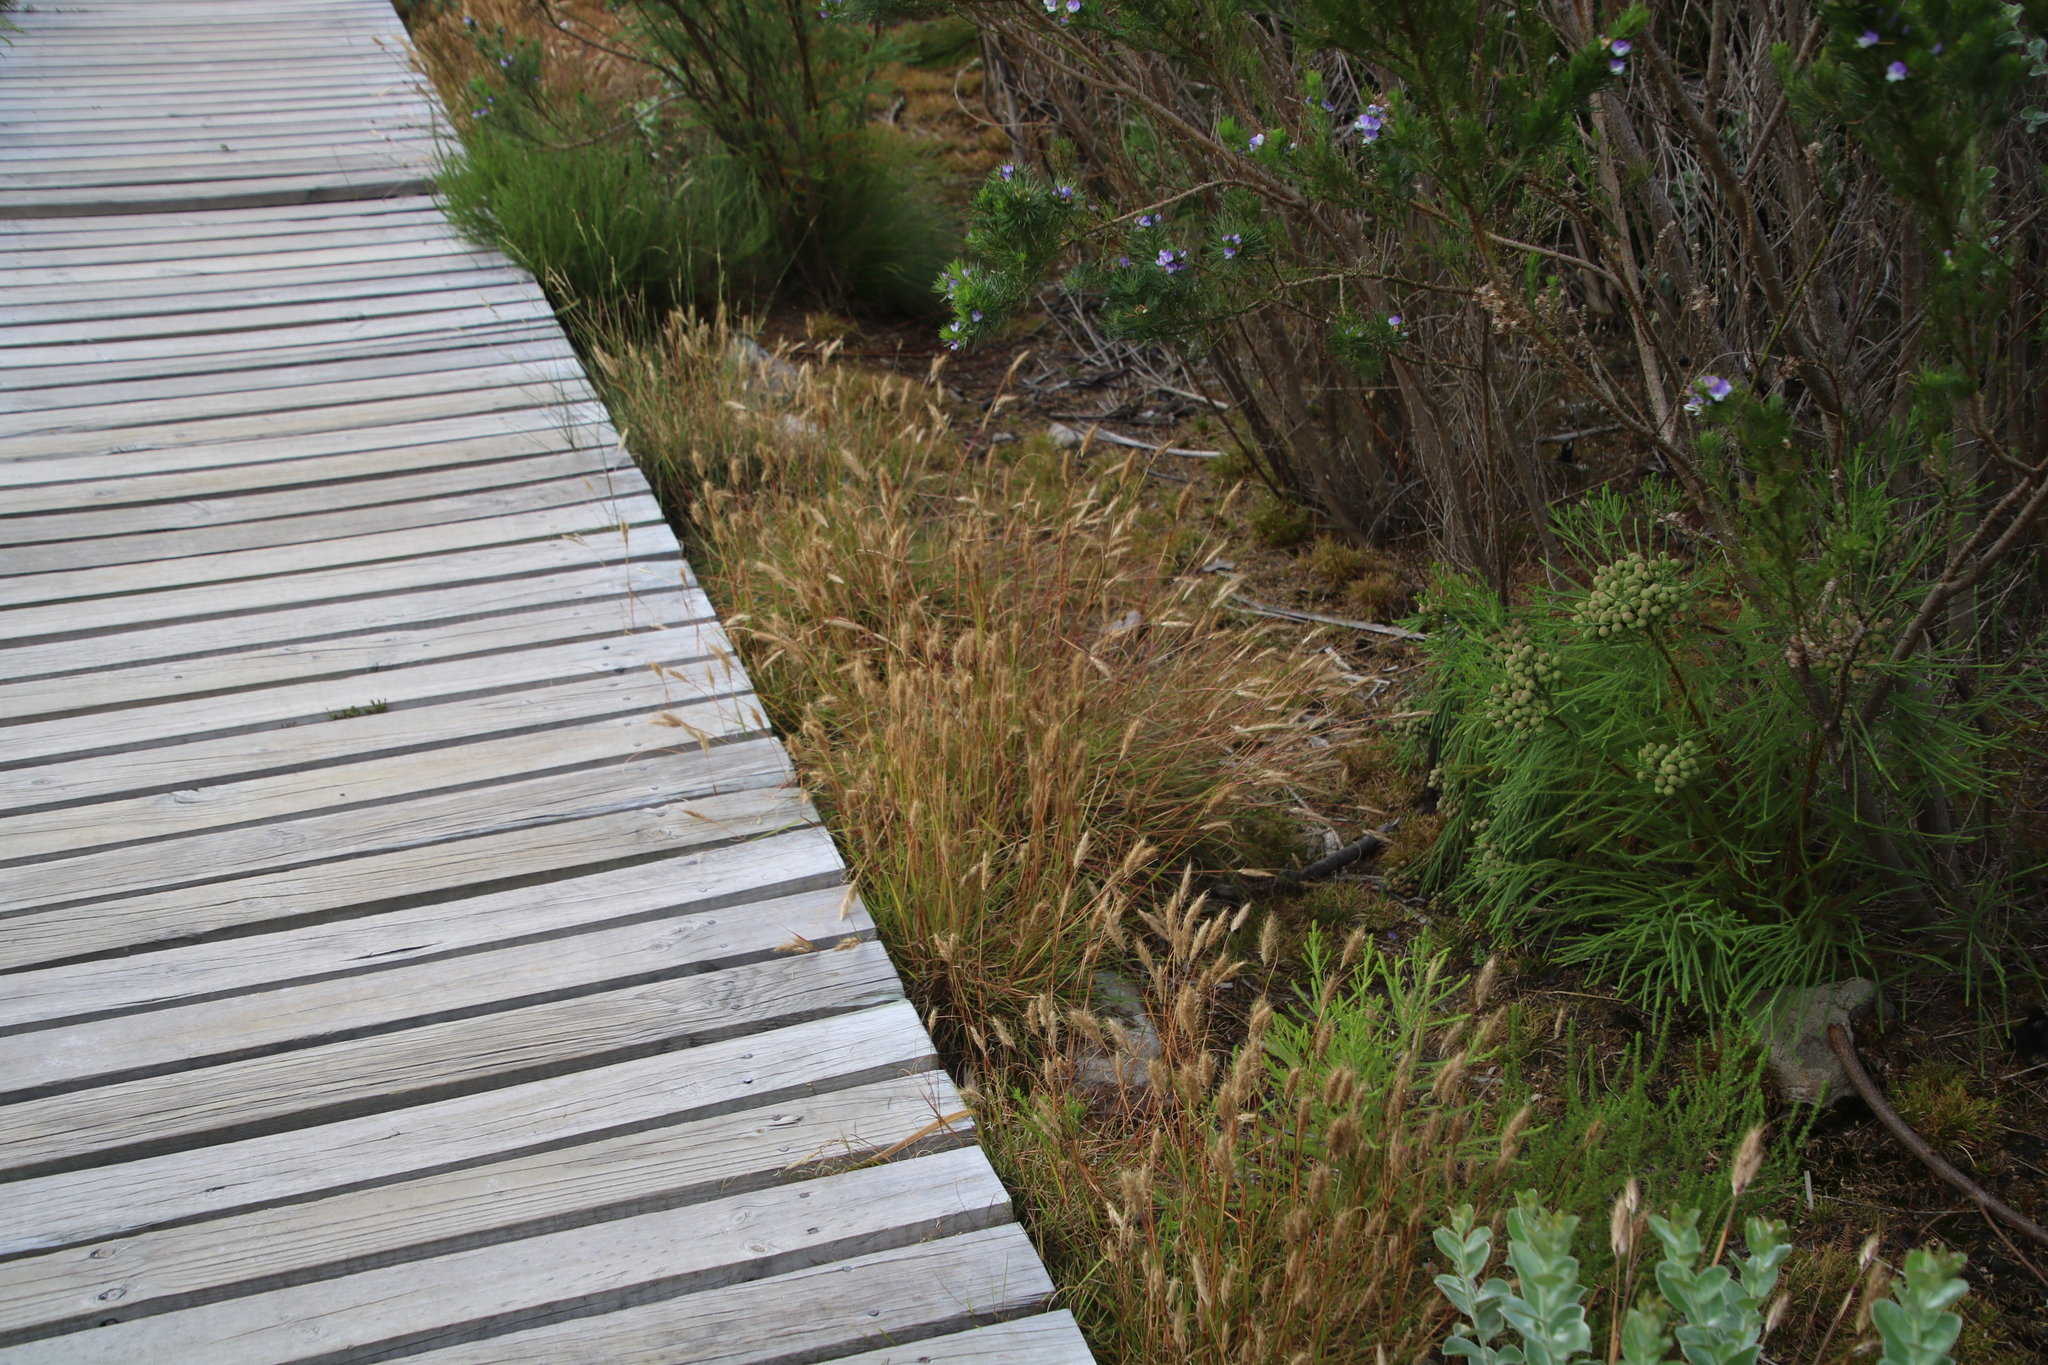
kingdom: Plantae
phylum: Tracheophyta
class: Liliopsida
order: Poales
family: Poaceae
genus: Pentameris
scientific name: Pentameris curvifolia
